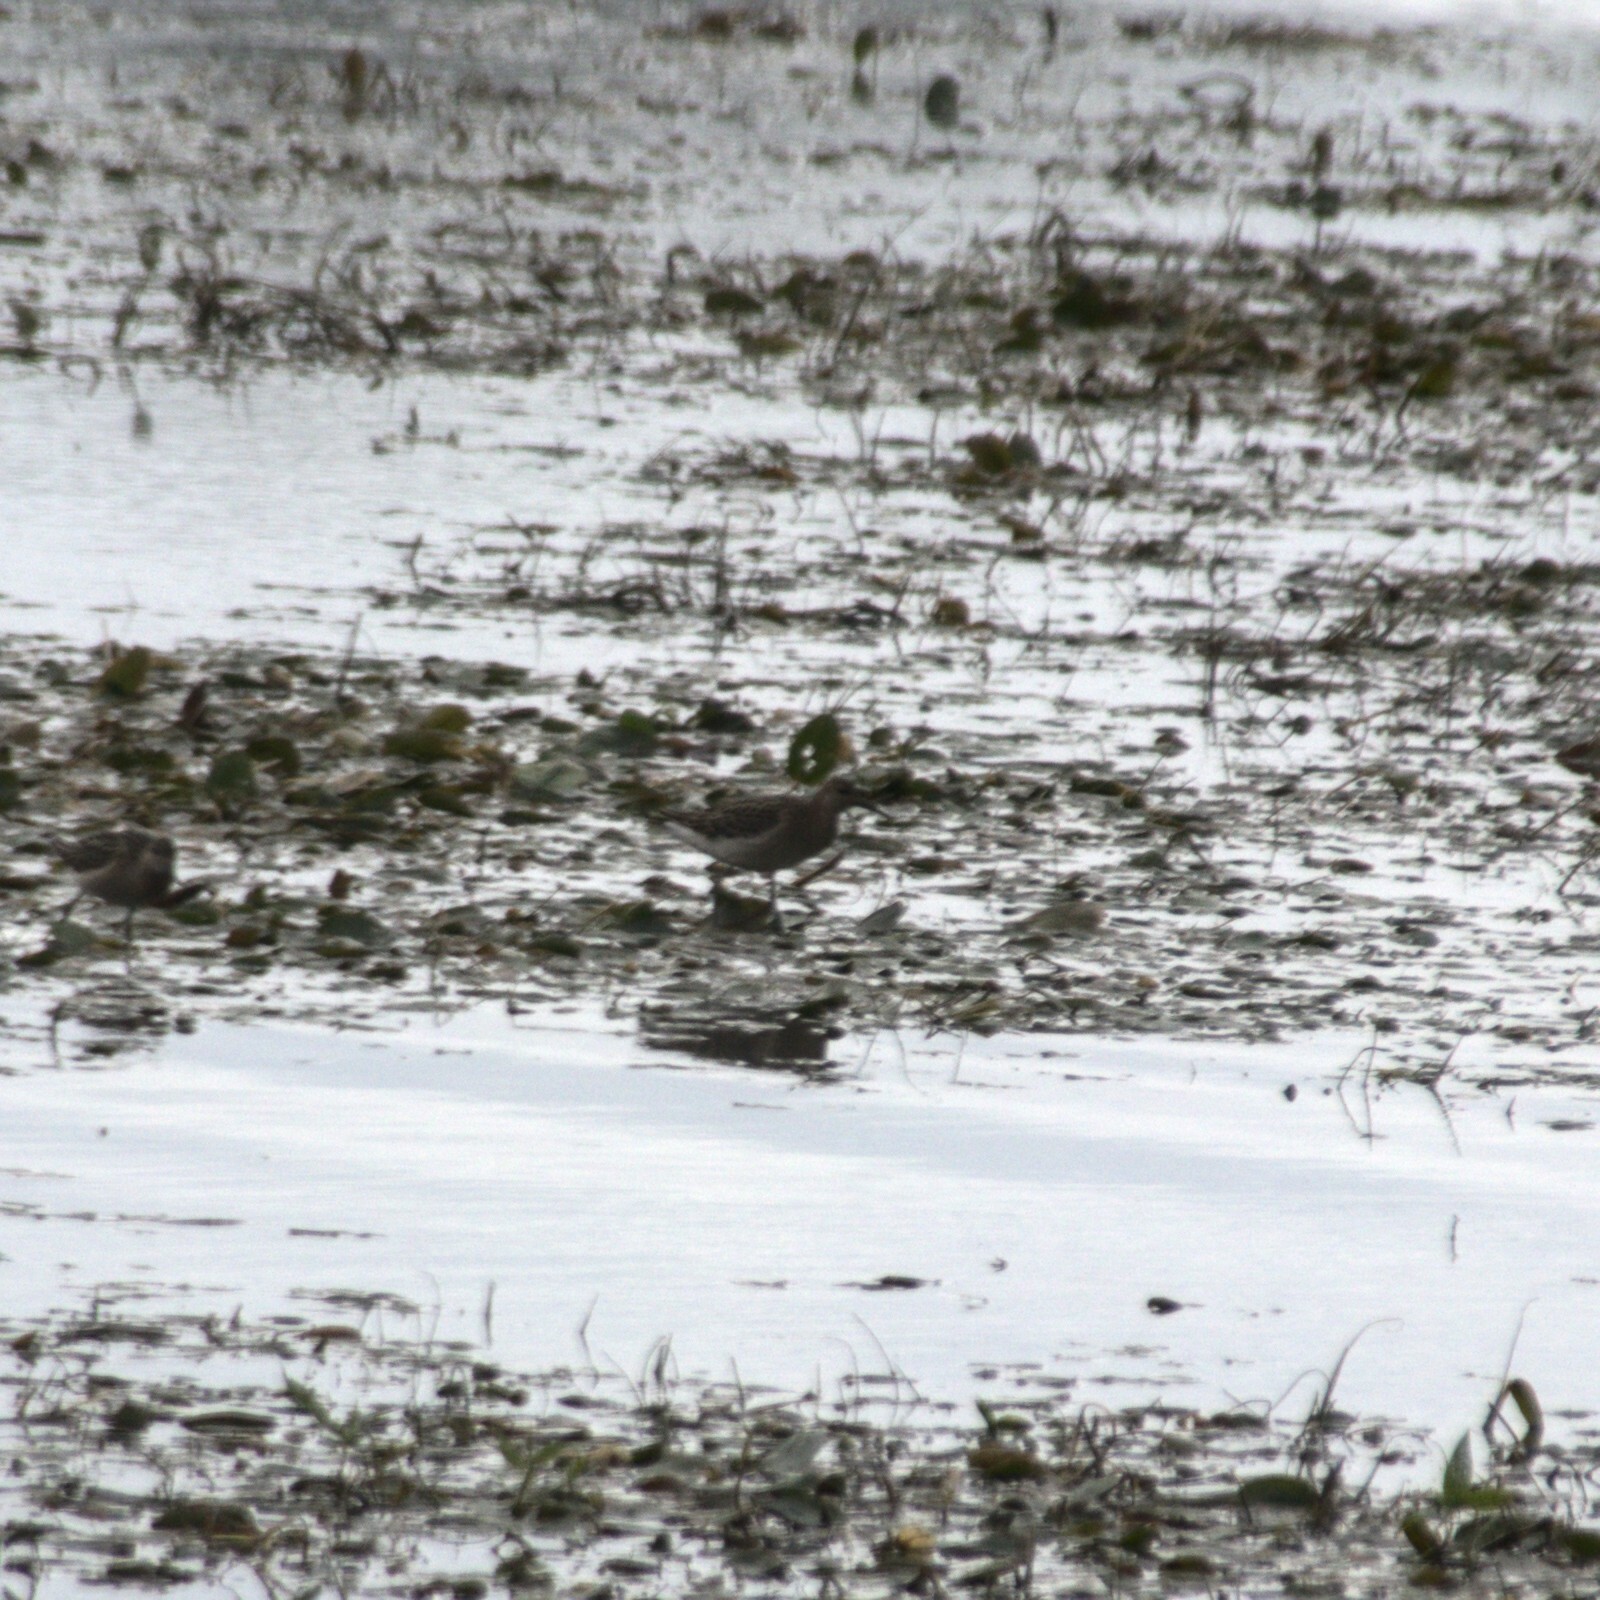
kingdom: Animalia
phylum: Chordata
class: Aves
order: Charadriiformes
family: Scolopacidae
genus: Calidris
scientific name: Calidris pugnax
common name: Ruff
